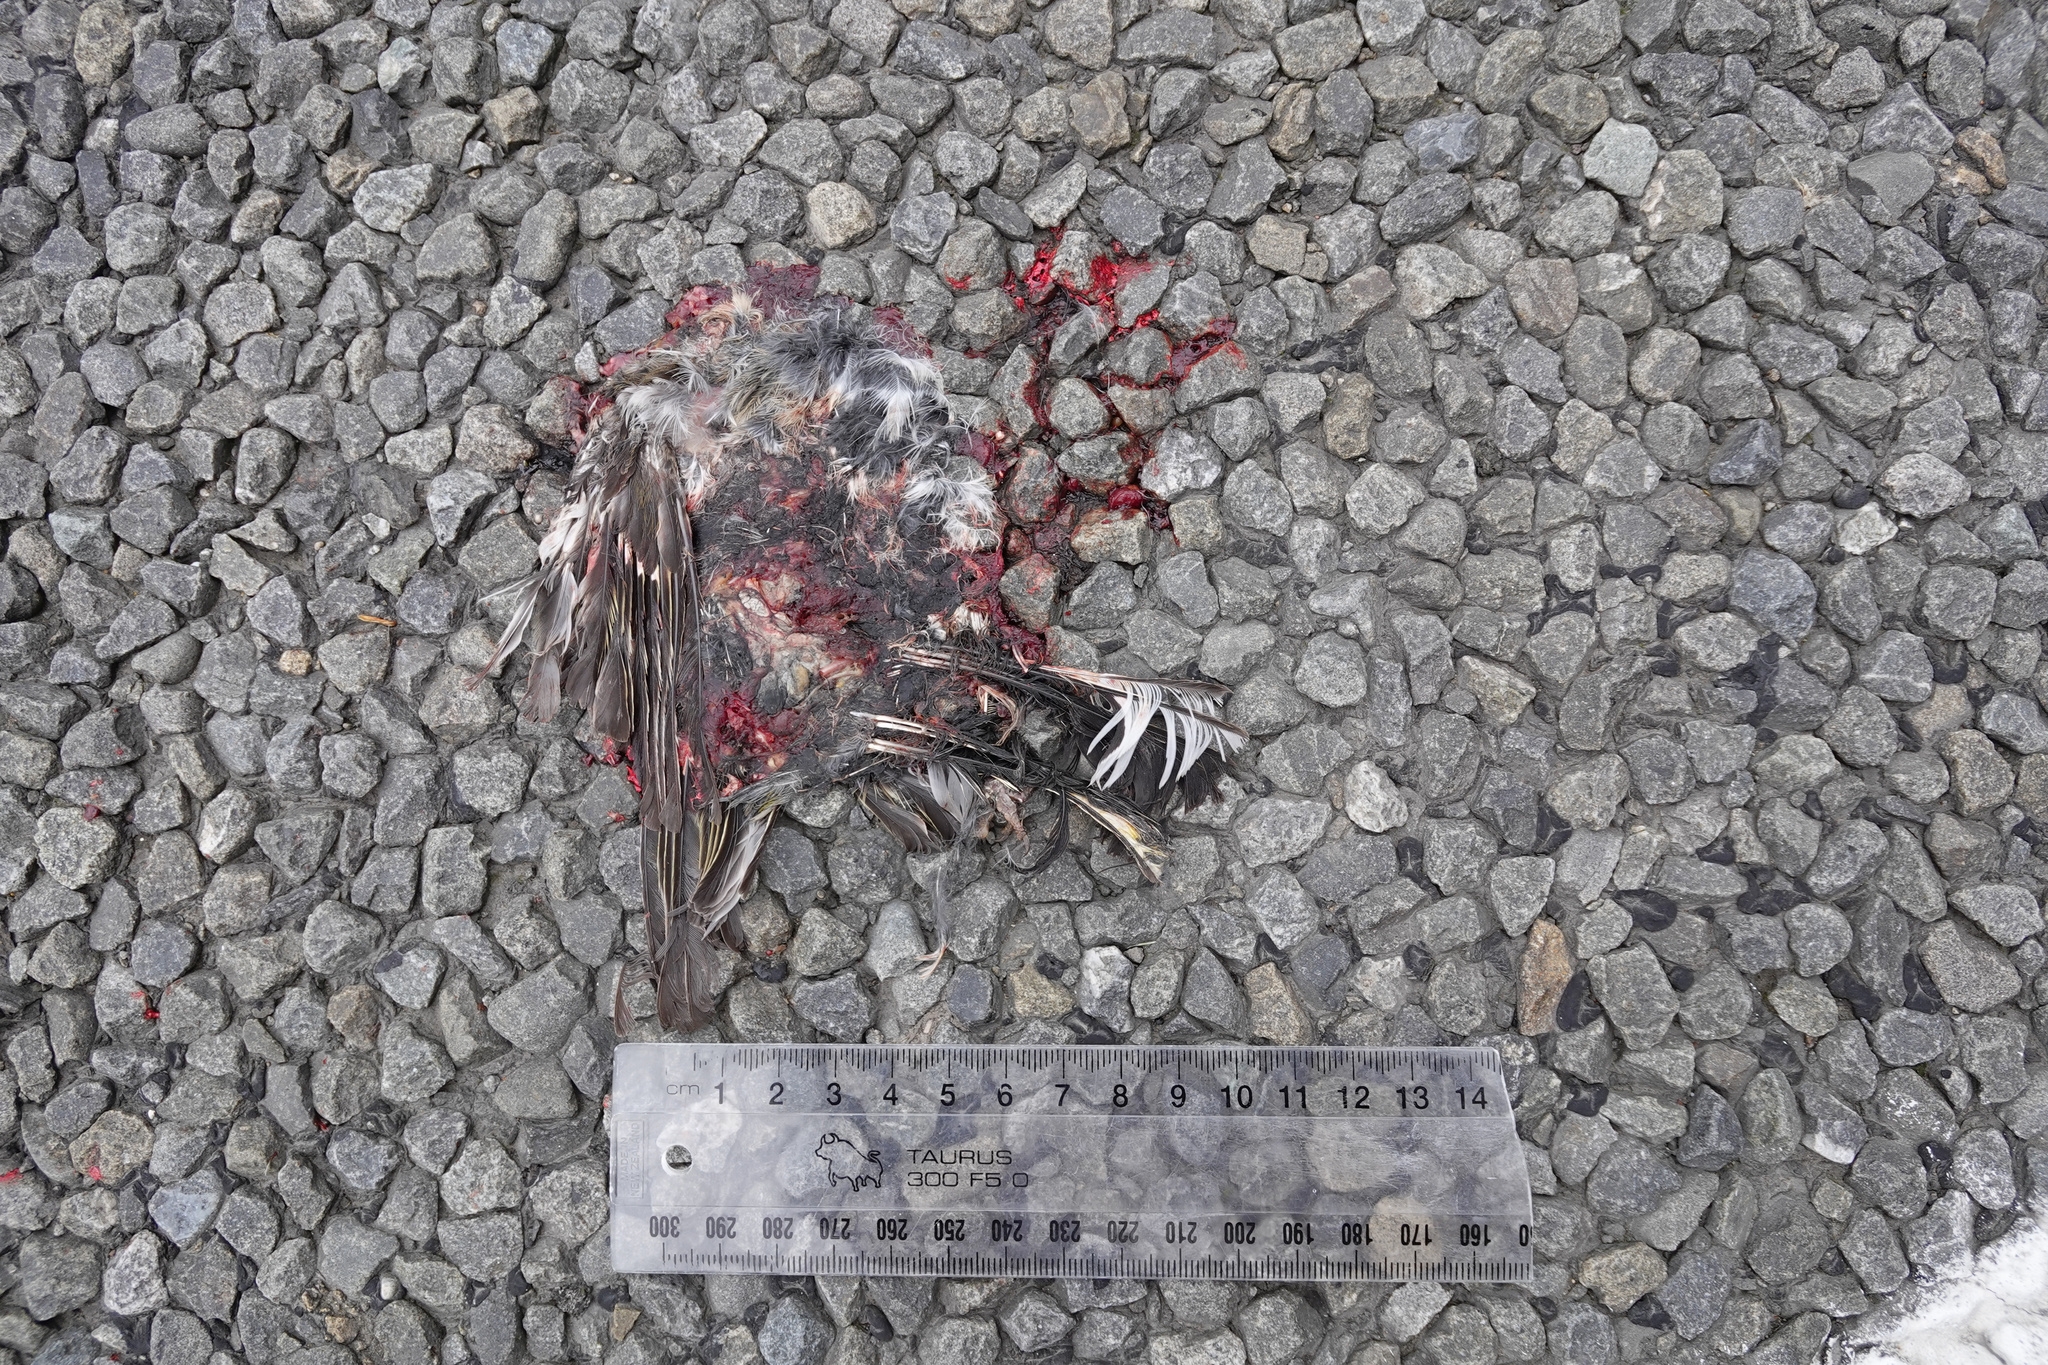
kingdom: Animalia
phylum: Chordata
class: Aves
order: Passeriformes
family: Fringillidae
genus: Fringilla
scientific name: Fringilla coelebs
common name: Common chaffinch
